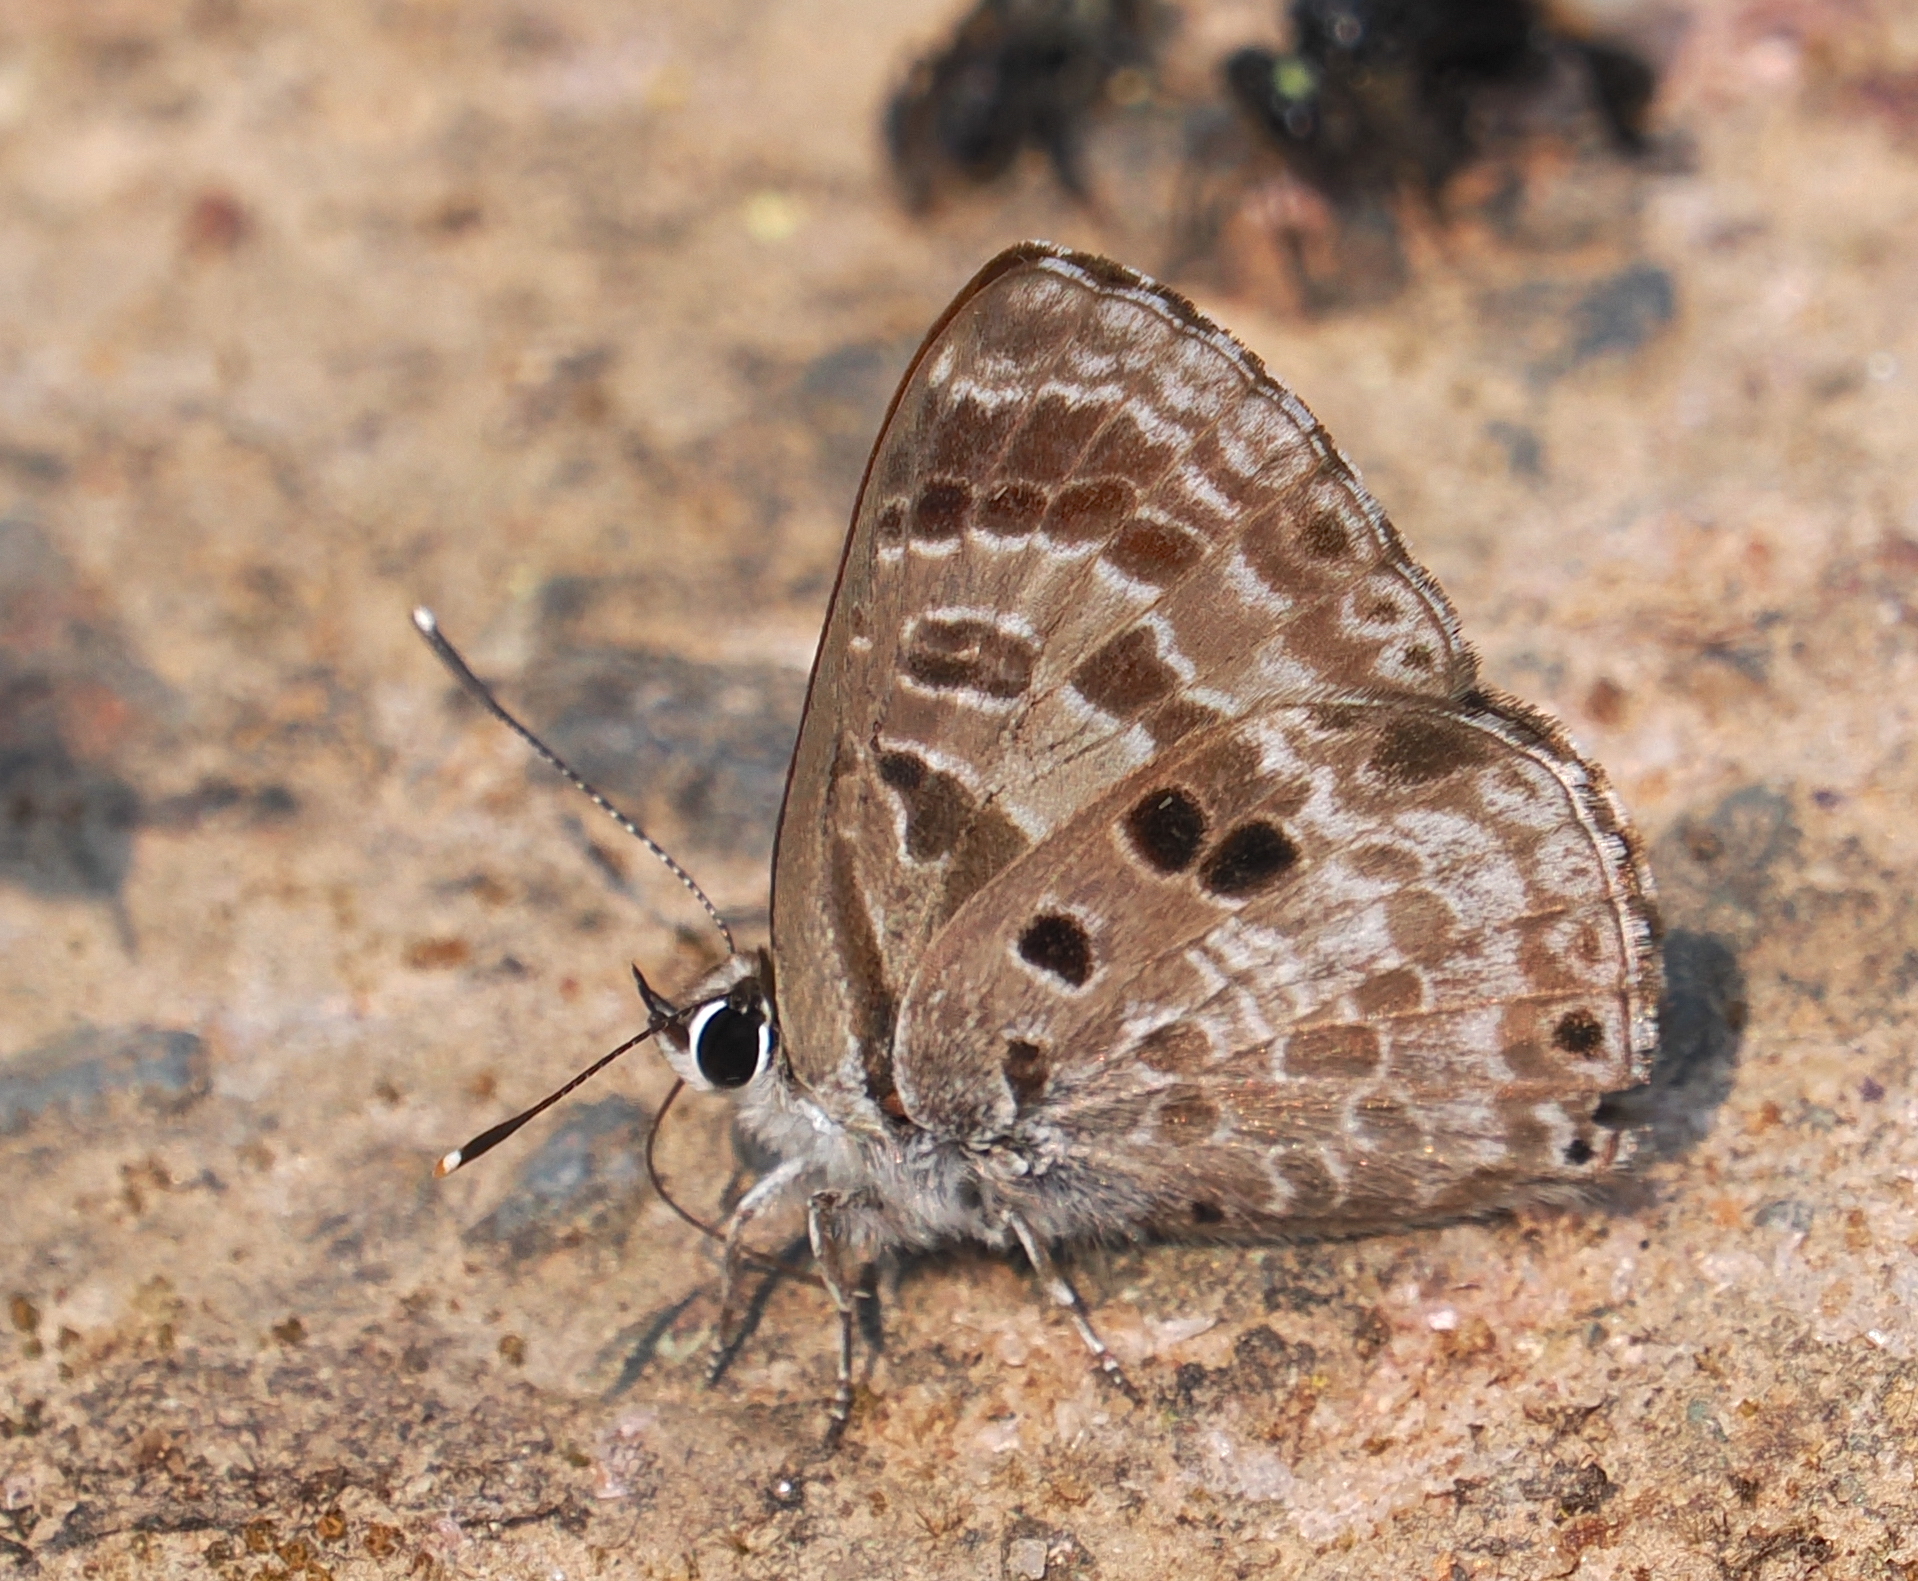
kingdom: Animalia
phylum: Arthropoda
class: Insecta
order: Lepidoptera
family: Lycaenidae
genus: Niphanda
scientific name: Niphanda asialis
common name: White-banded pierrot
